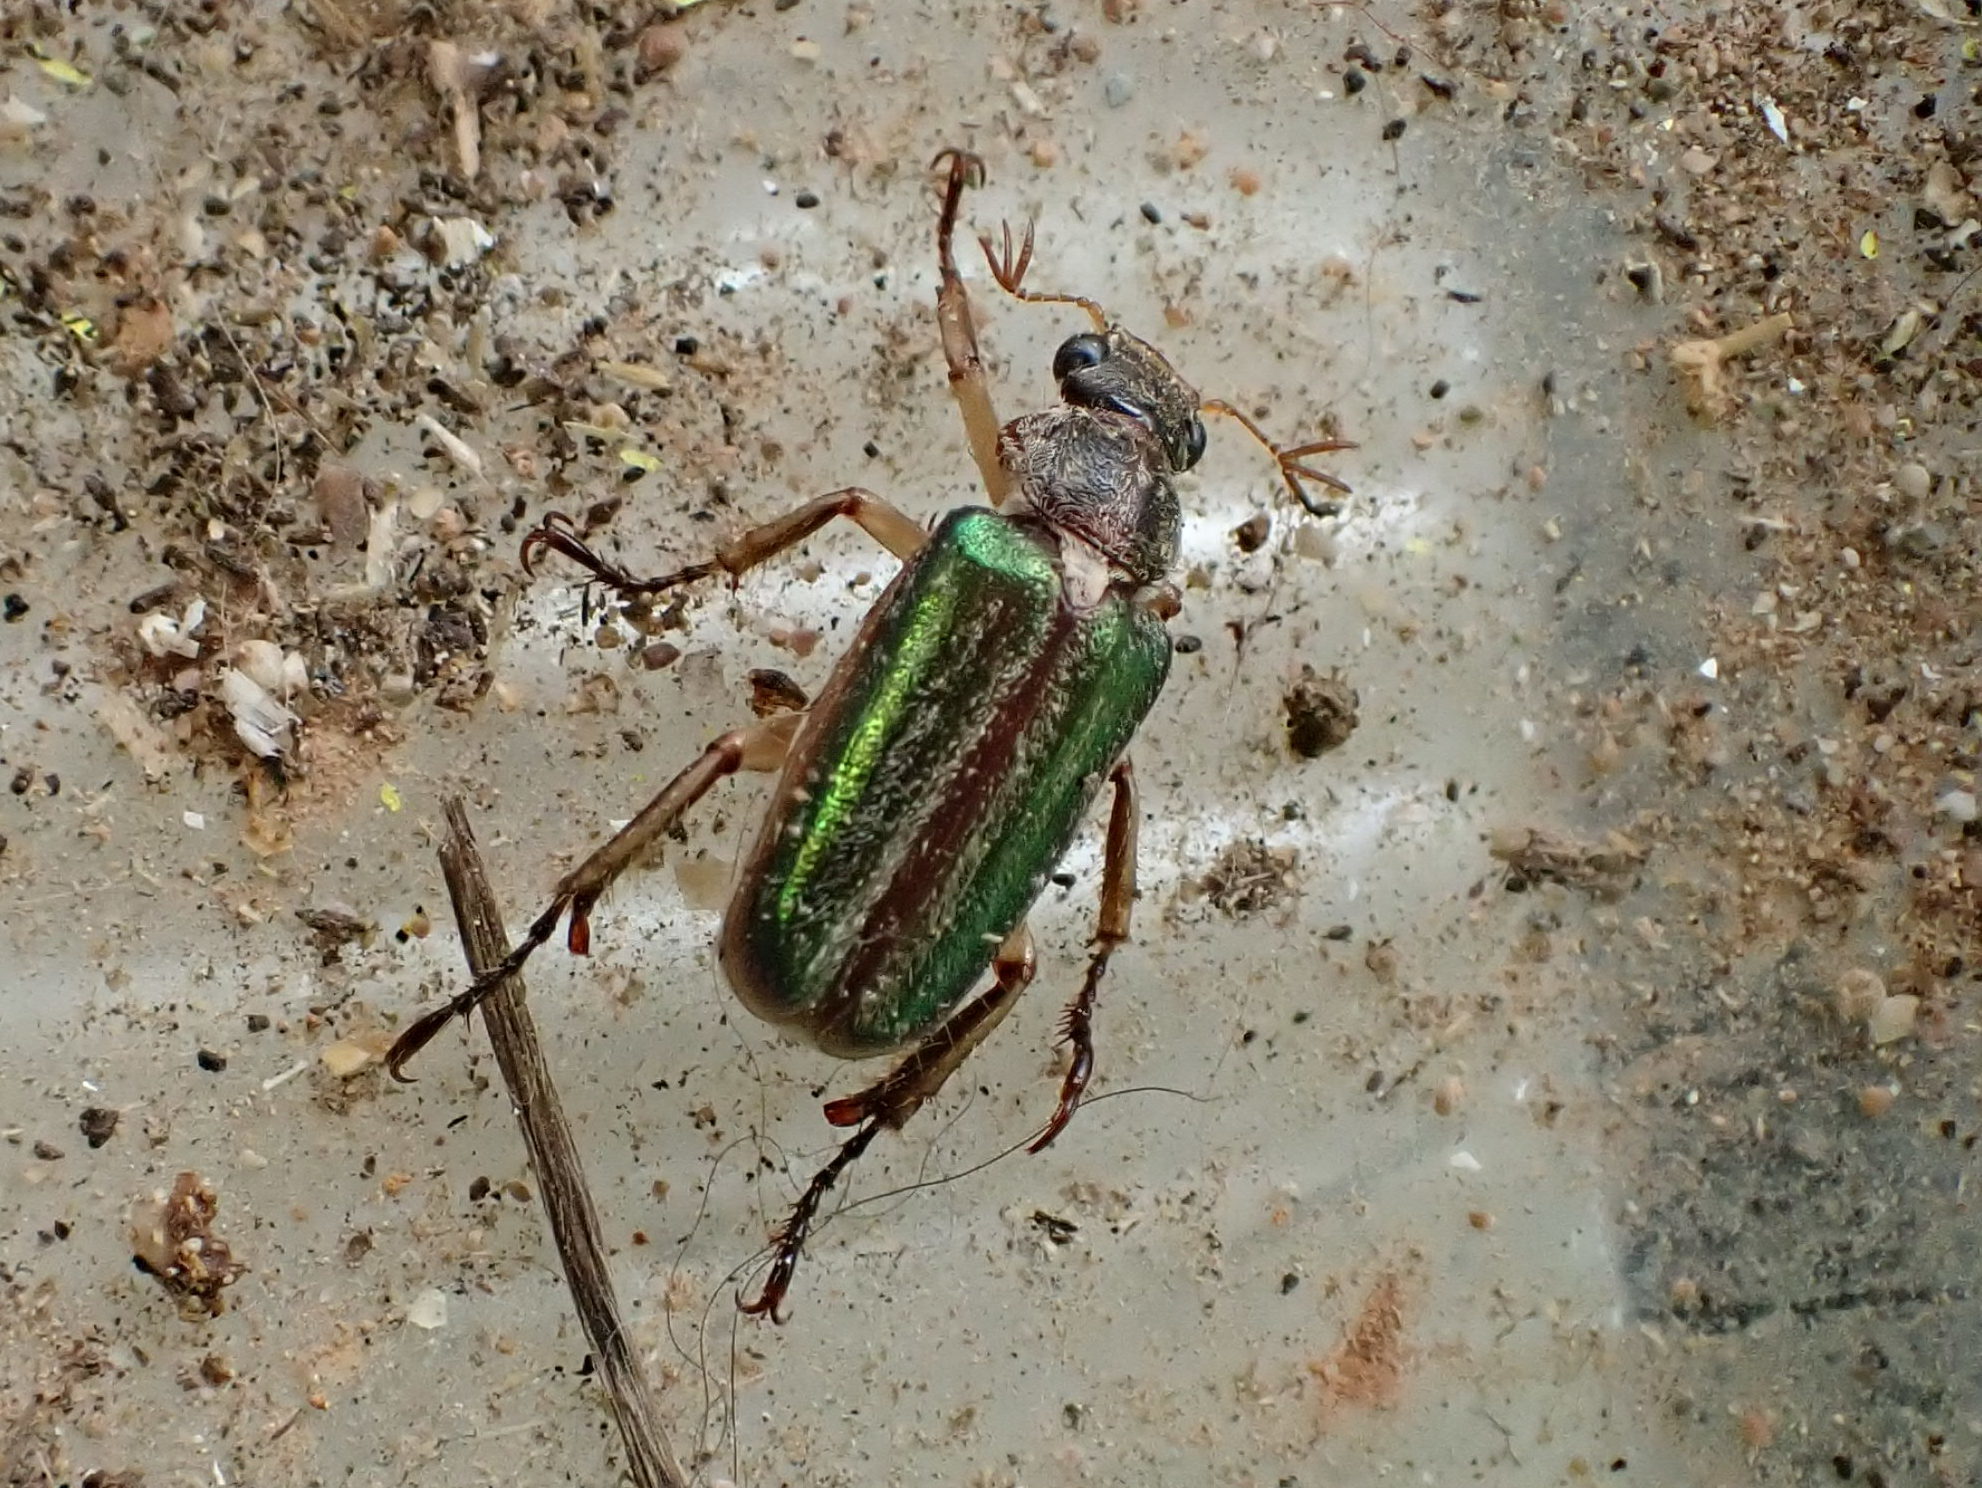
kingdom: Animalia
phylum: Arthropoda
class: Insecta
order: Coleoptera
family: Scarabaeidae
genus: Dichelonyx
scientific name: Dichelonyx albicollis
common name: White-necked pine-beetle
